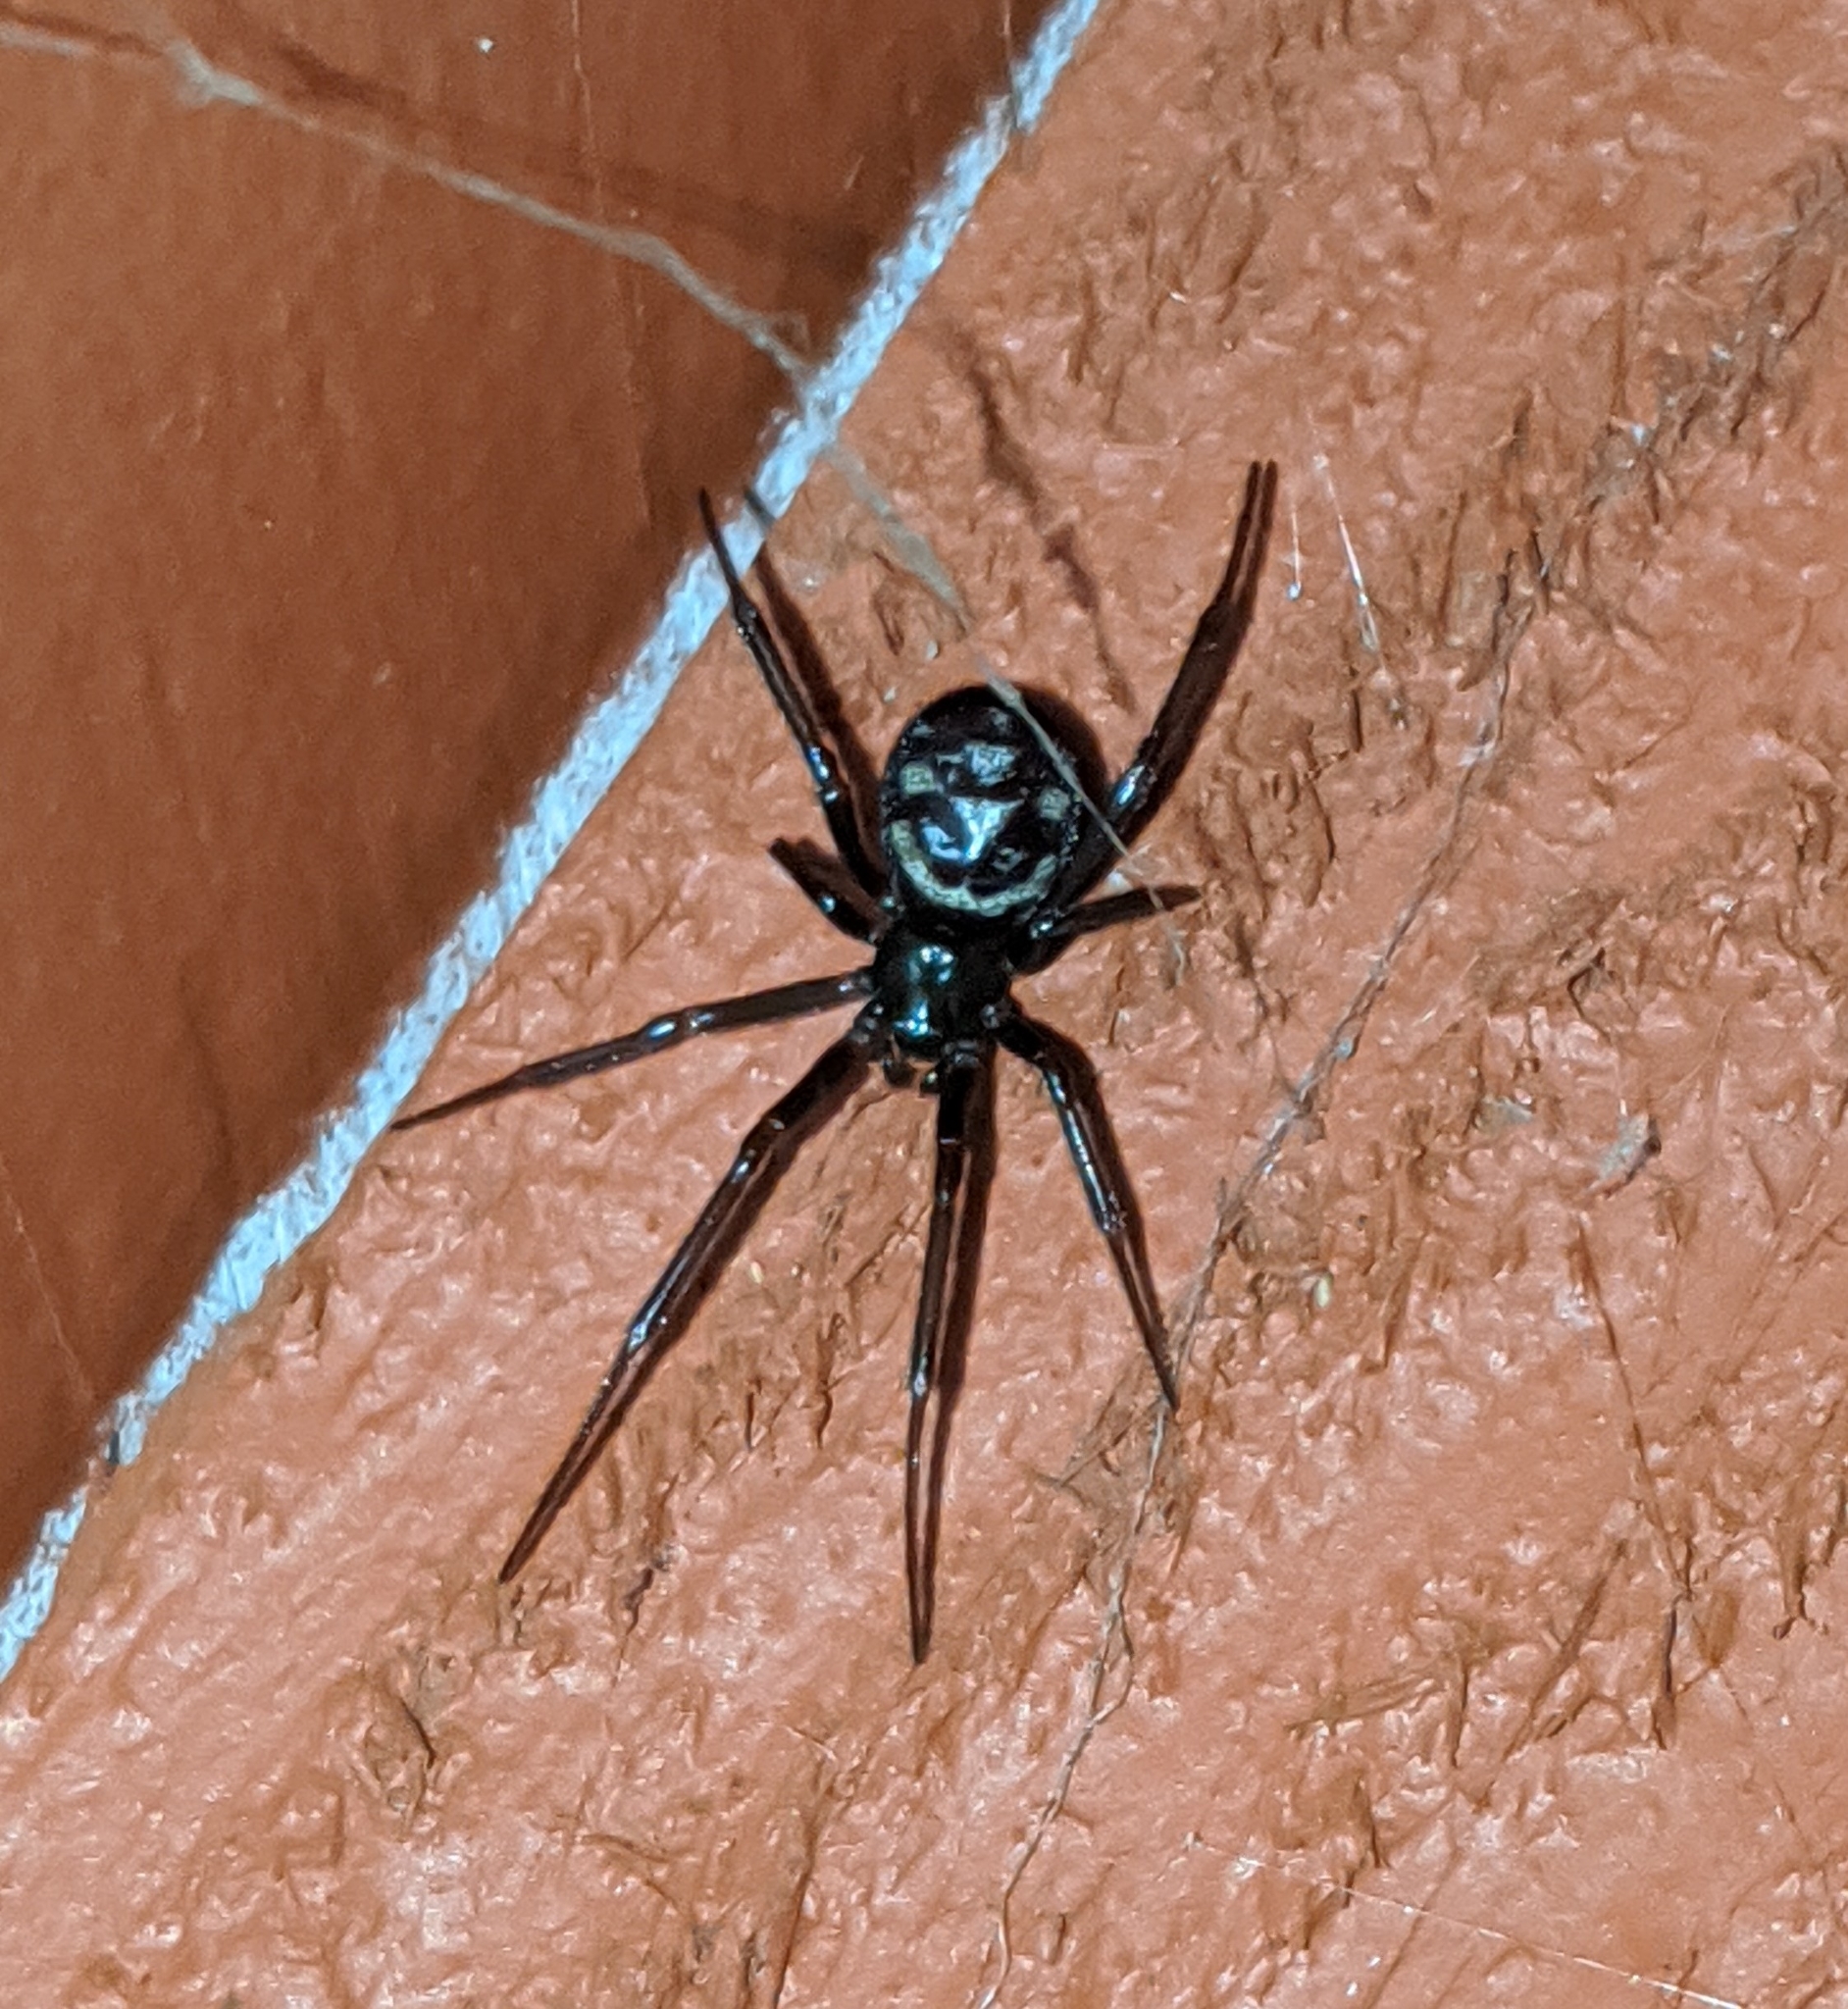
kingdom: Animalia
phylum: Arthropoda
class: Arachnida
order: Araneae
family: Theridiidae
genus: Steatoda
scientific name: Steatoda grossa
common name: False black widow
